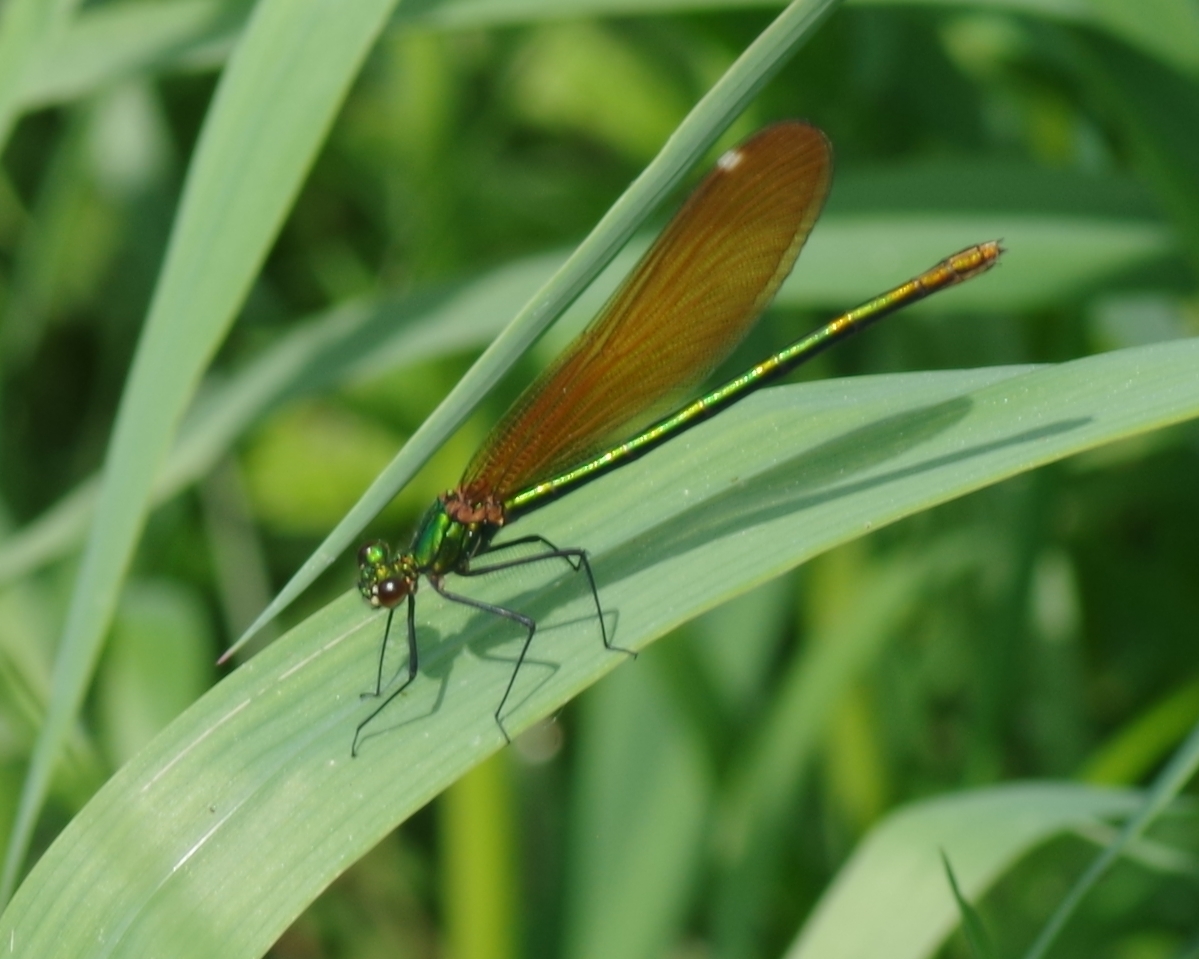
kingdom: Animalia
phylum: Arthropoda
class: Insecta
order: Odonata
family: Calopterygidae
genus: Calopteryx
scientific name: Calopteryx virgo
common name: Beautiful demoiselle
